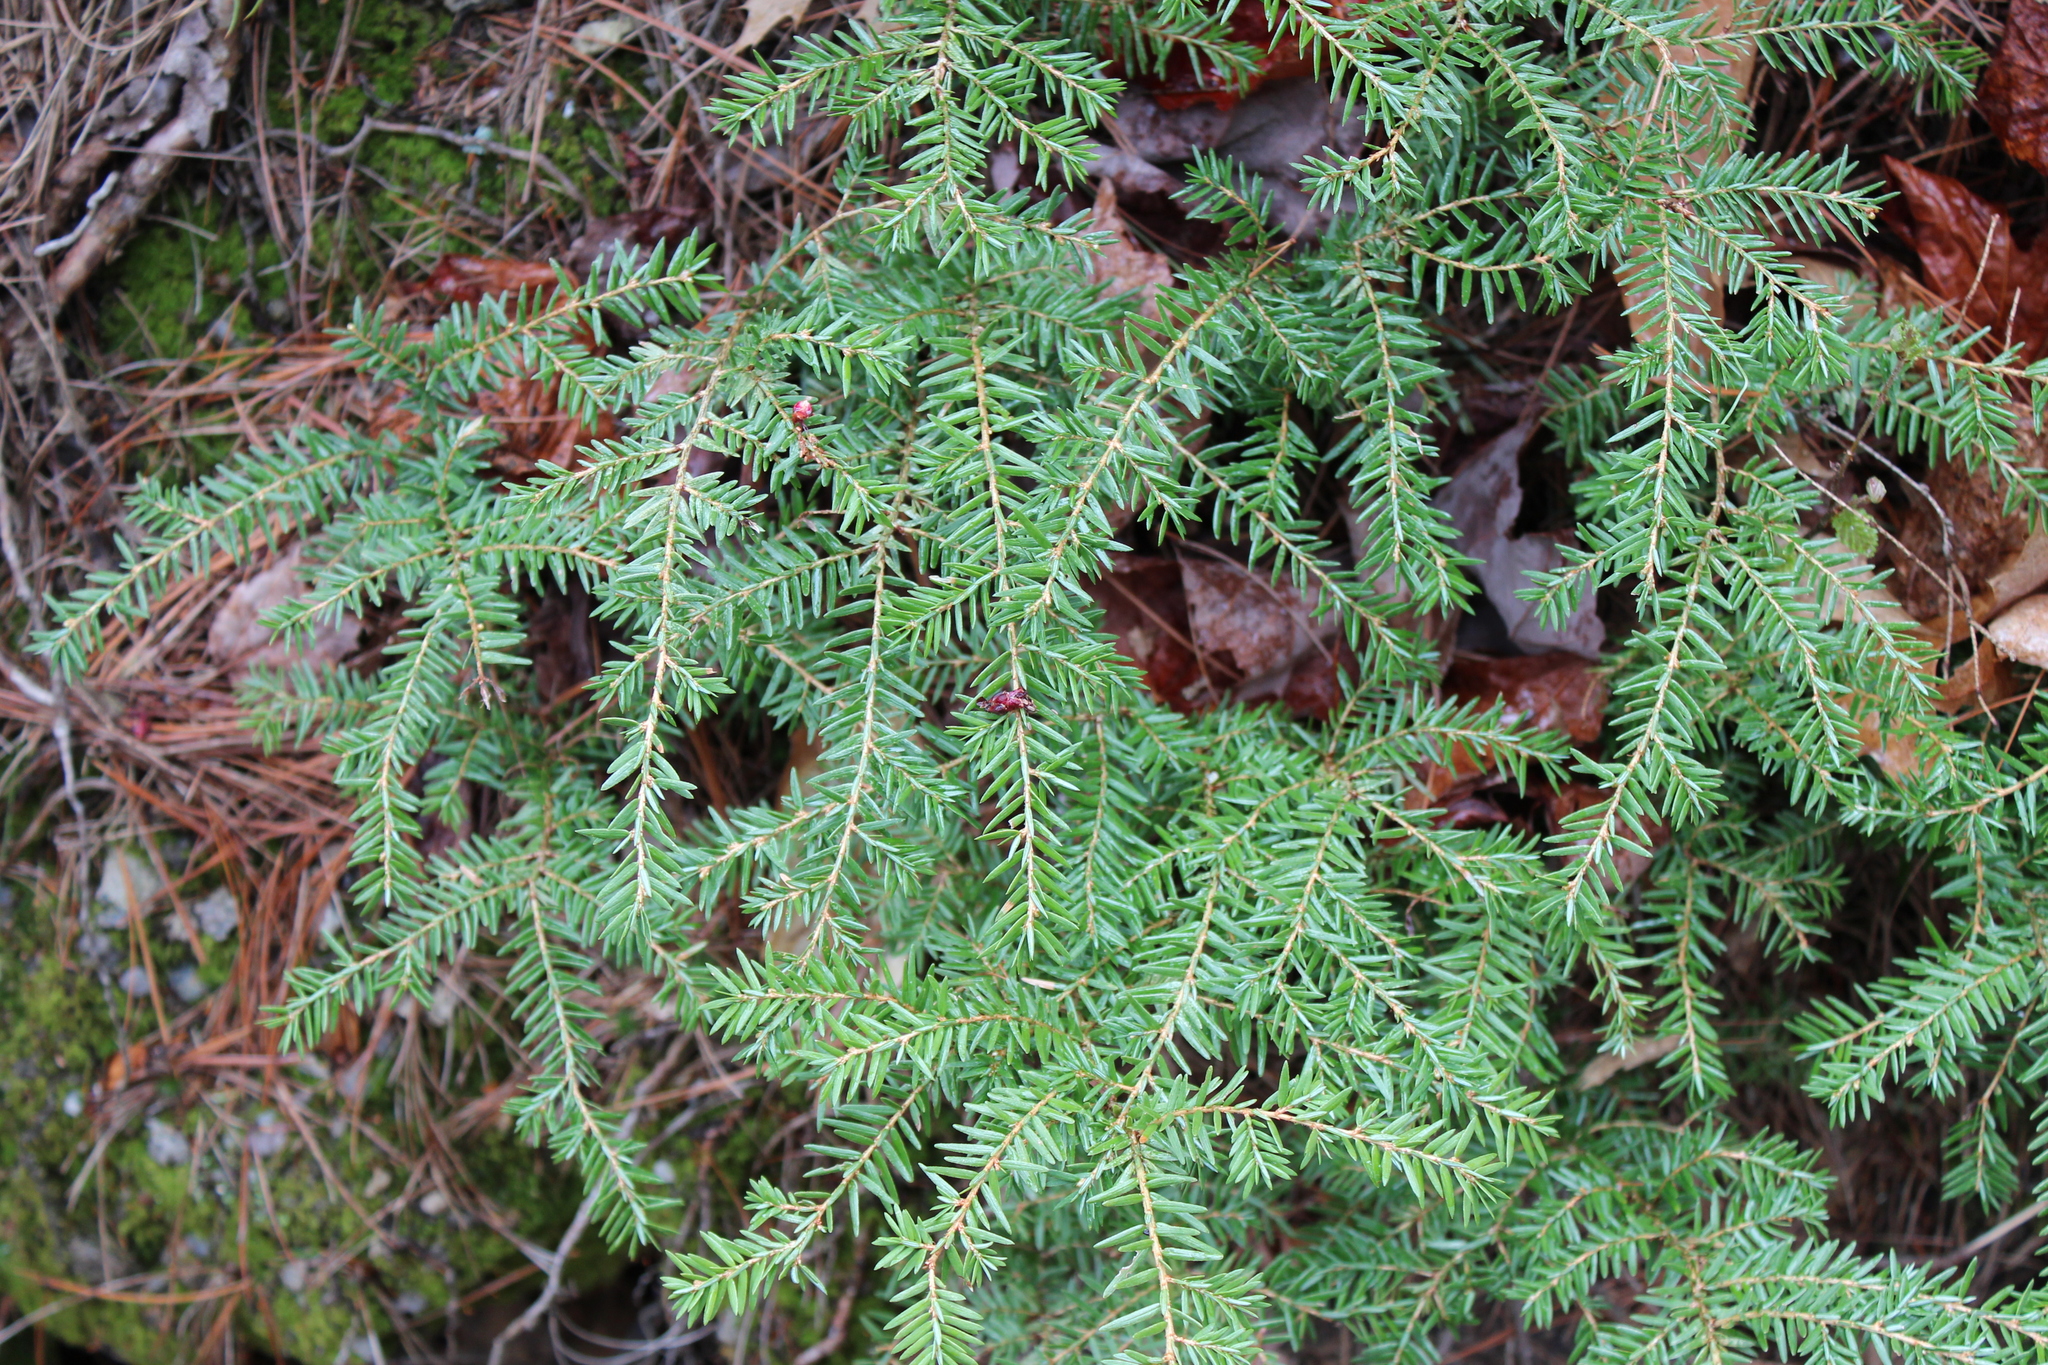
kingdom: Plantae
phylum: Tracheophyta
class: Pinopsida
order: Pinales
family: Pinaceae
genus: Tsuga
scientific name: Tsuga canadensis
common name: Eastern hemlock
